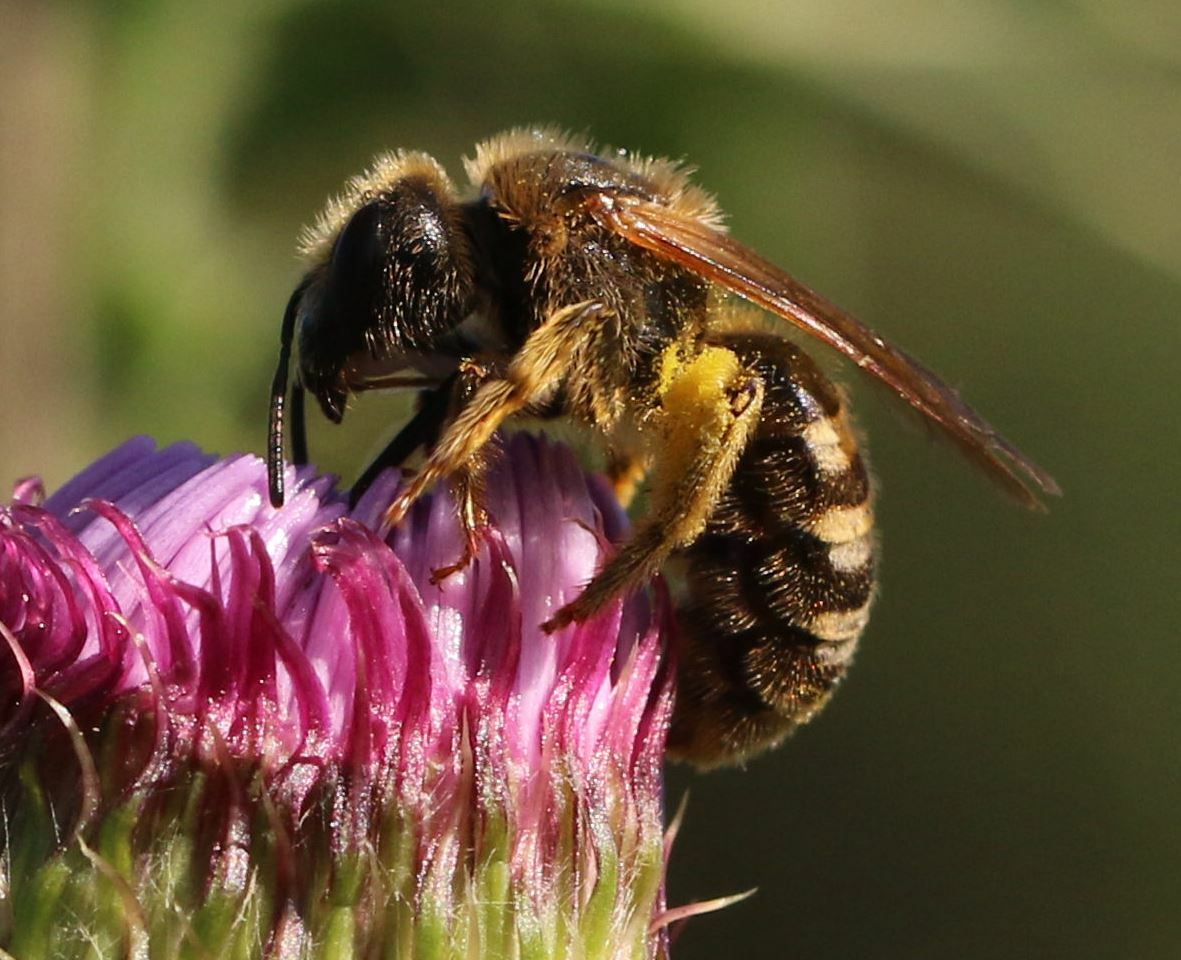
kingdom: Animalia
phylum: Arthropoda
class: Insecta
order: Hymenoptera
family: Halictidae
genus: Halictus
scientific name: Halictus scabiosae
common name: Great banded furrow bee
